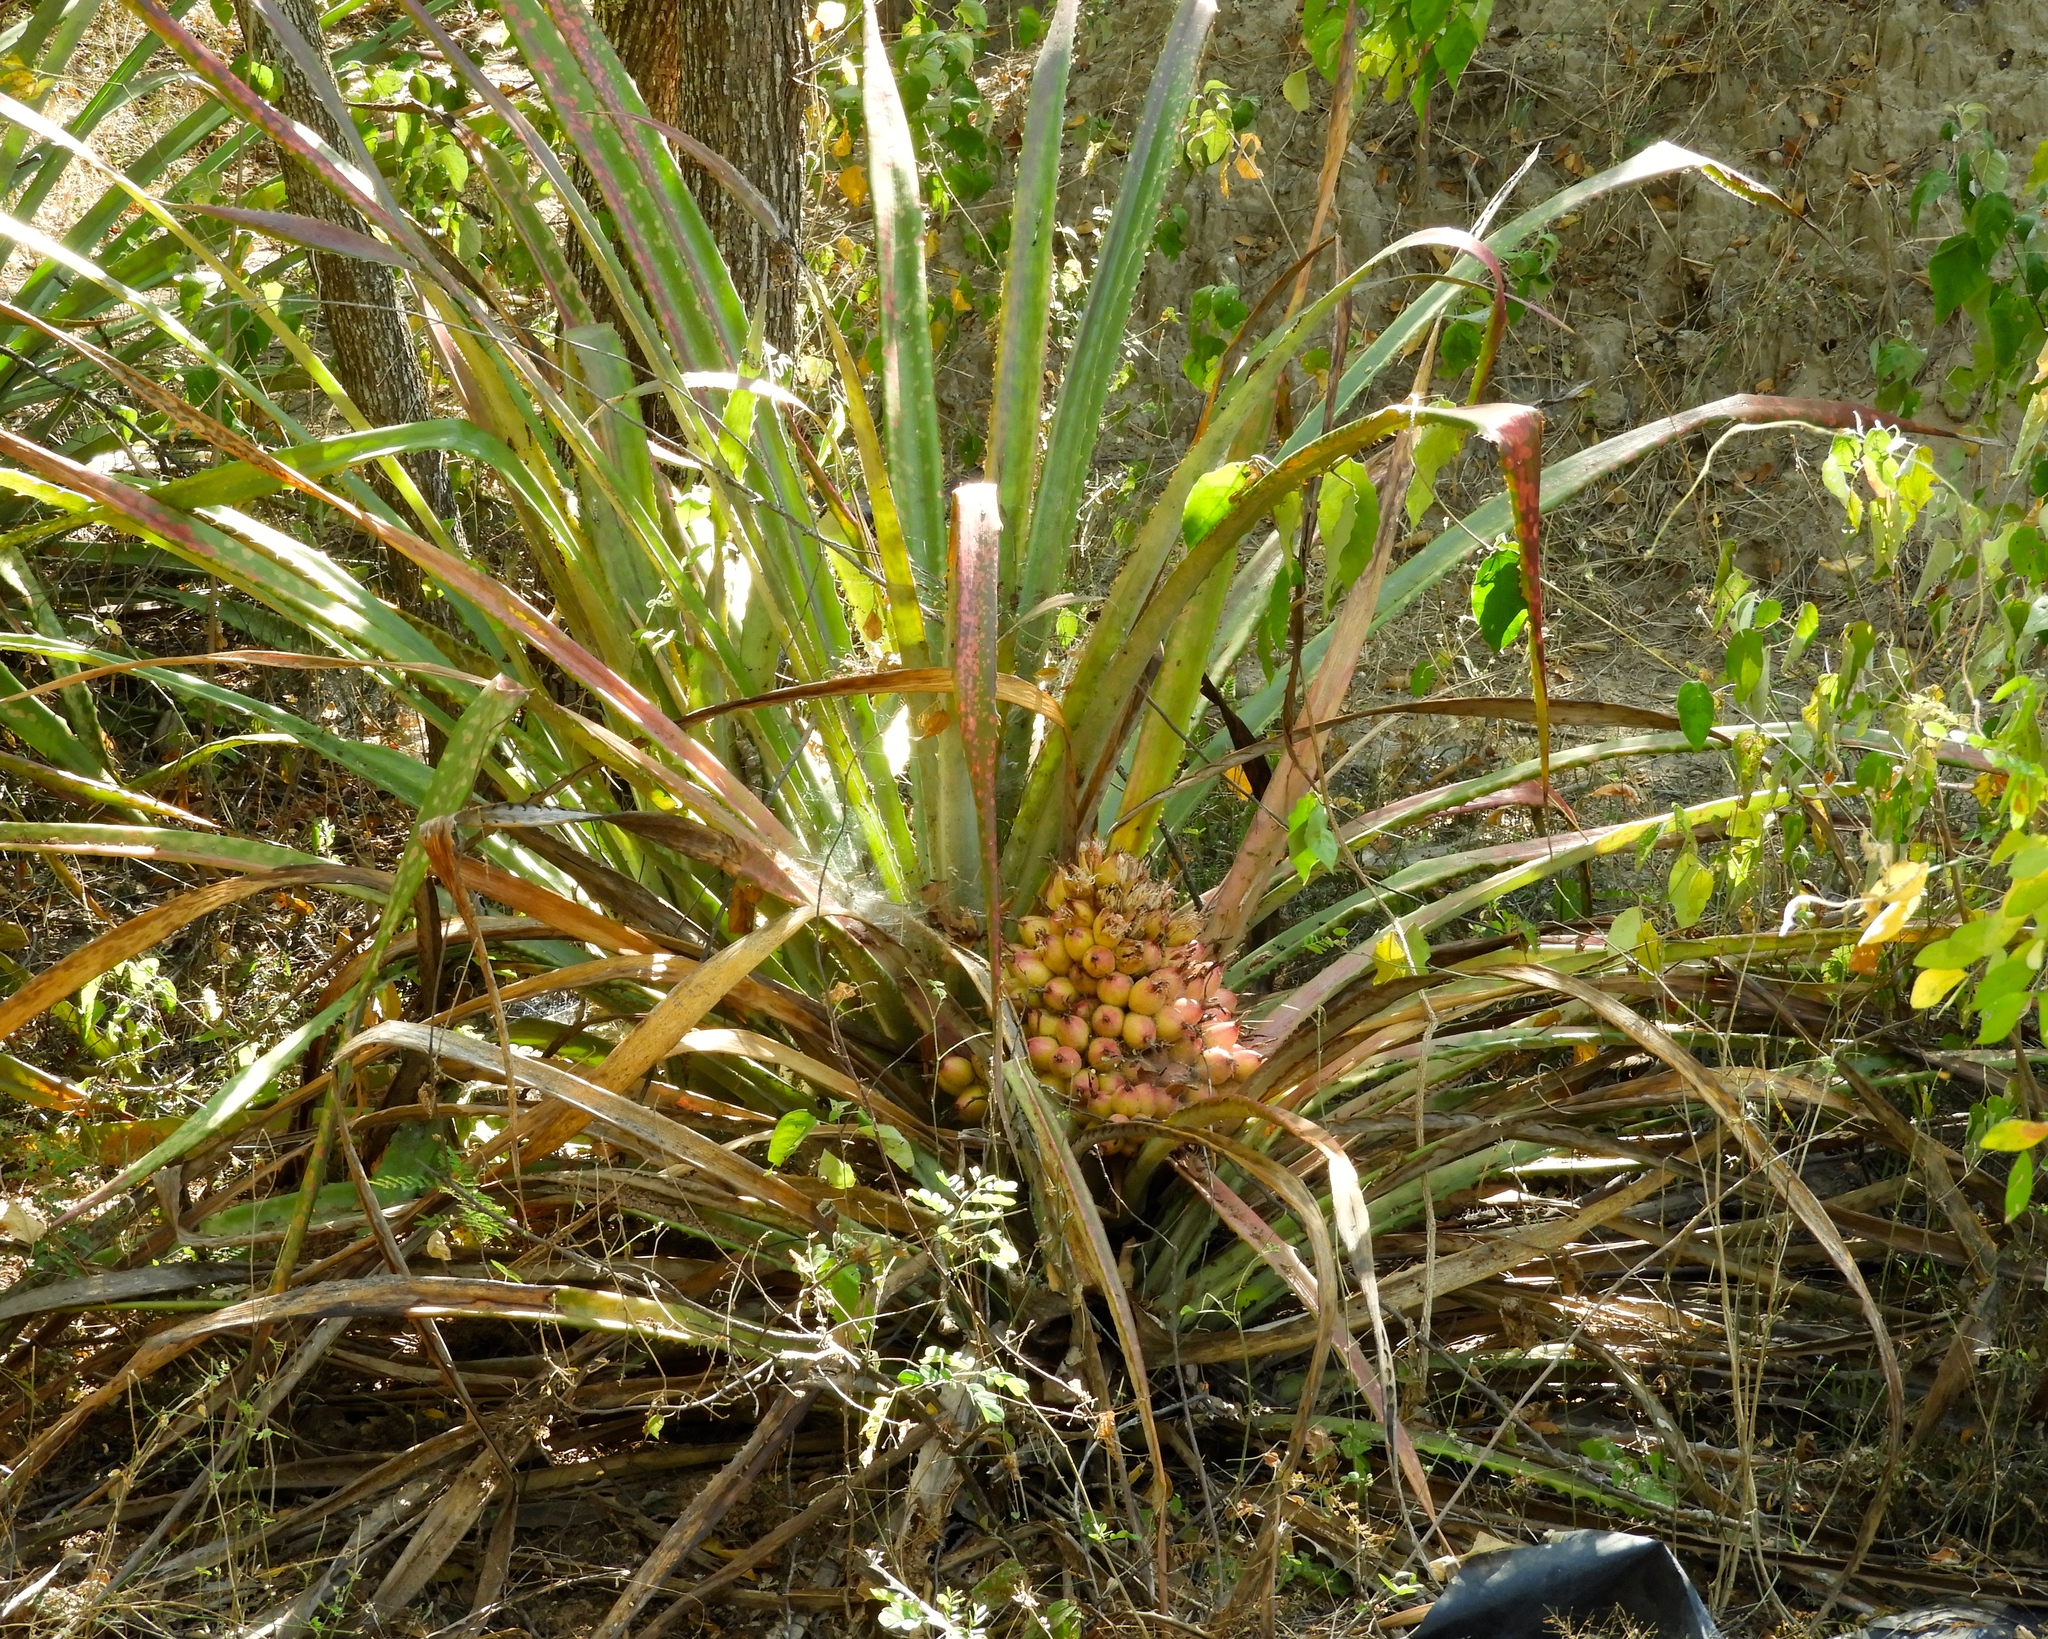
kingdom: Plantae
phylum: Tracheophyta
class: Liliopsida
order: Poales
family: Bromeliaceae
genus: Bromelia
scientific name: Bromelia hemisphaerica
